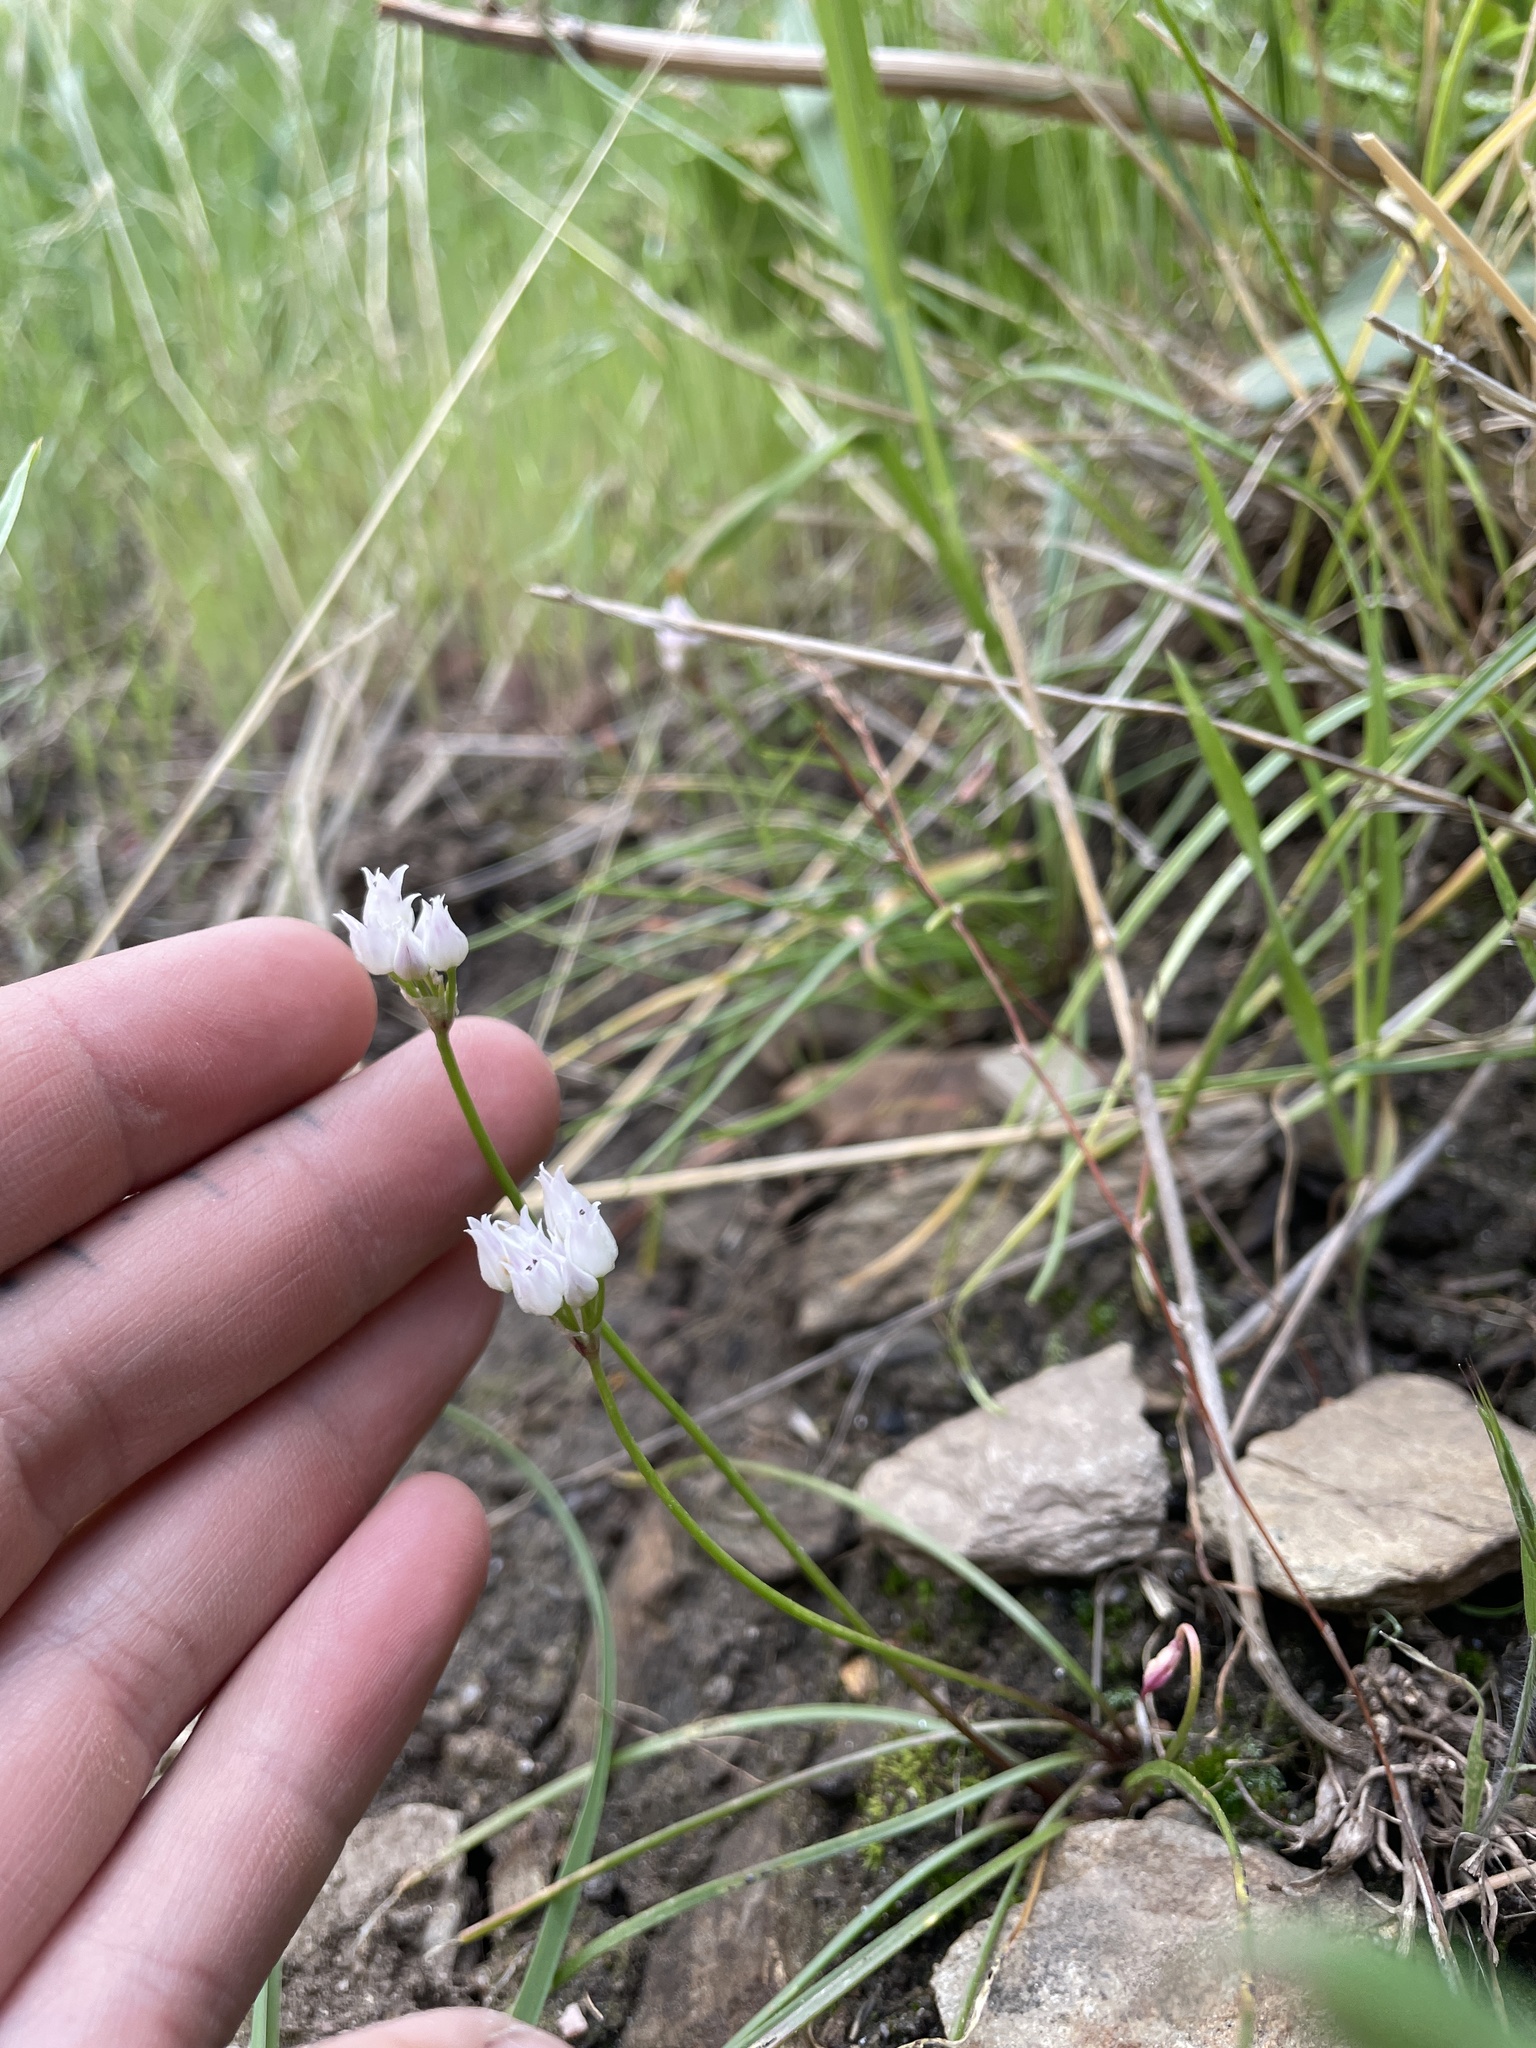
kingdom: Plantae
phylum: Tracheophyta
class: Liliopsida
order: Asparagales
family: Amaryllidaceae
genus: Allium
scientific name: Allium geyeri
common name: Geyer's onion
